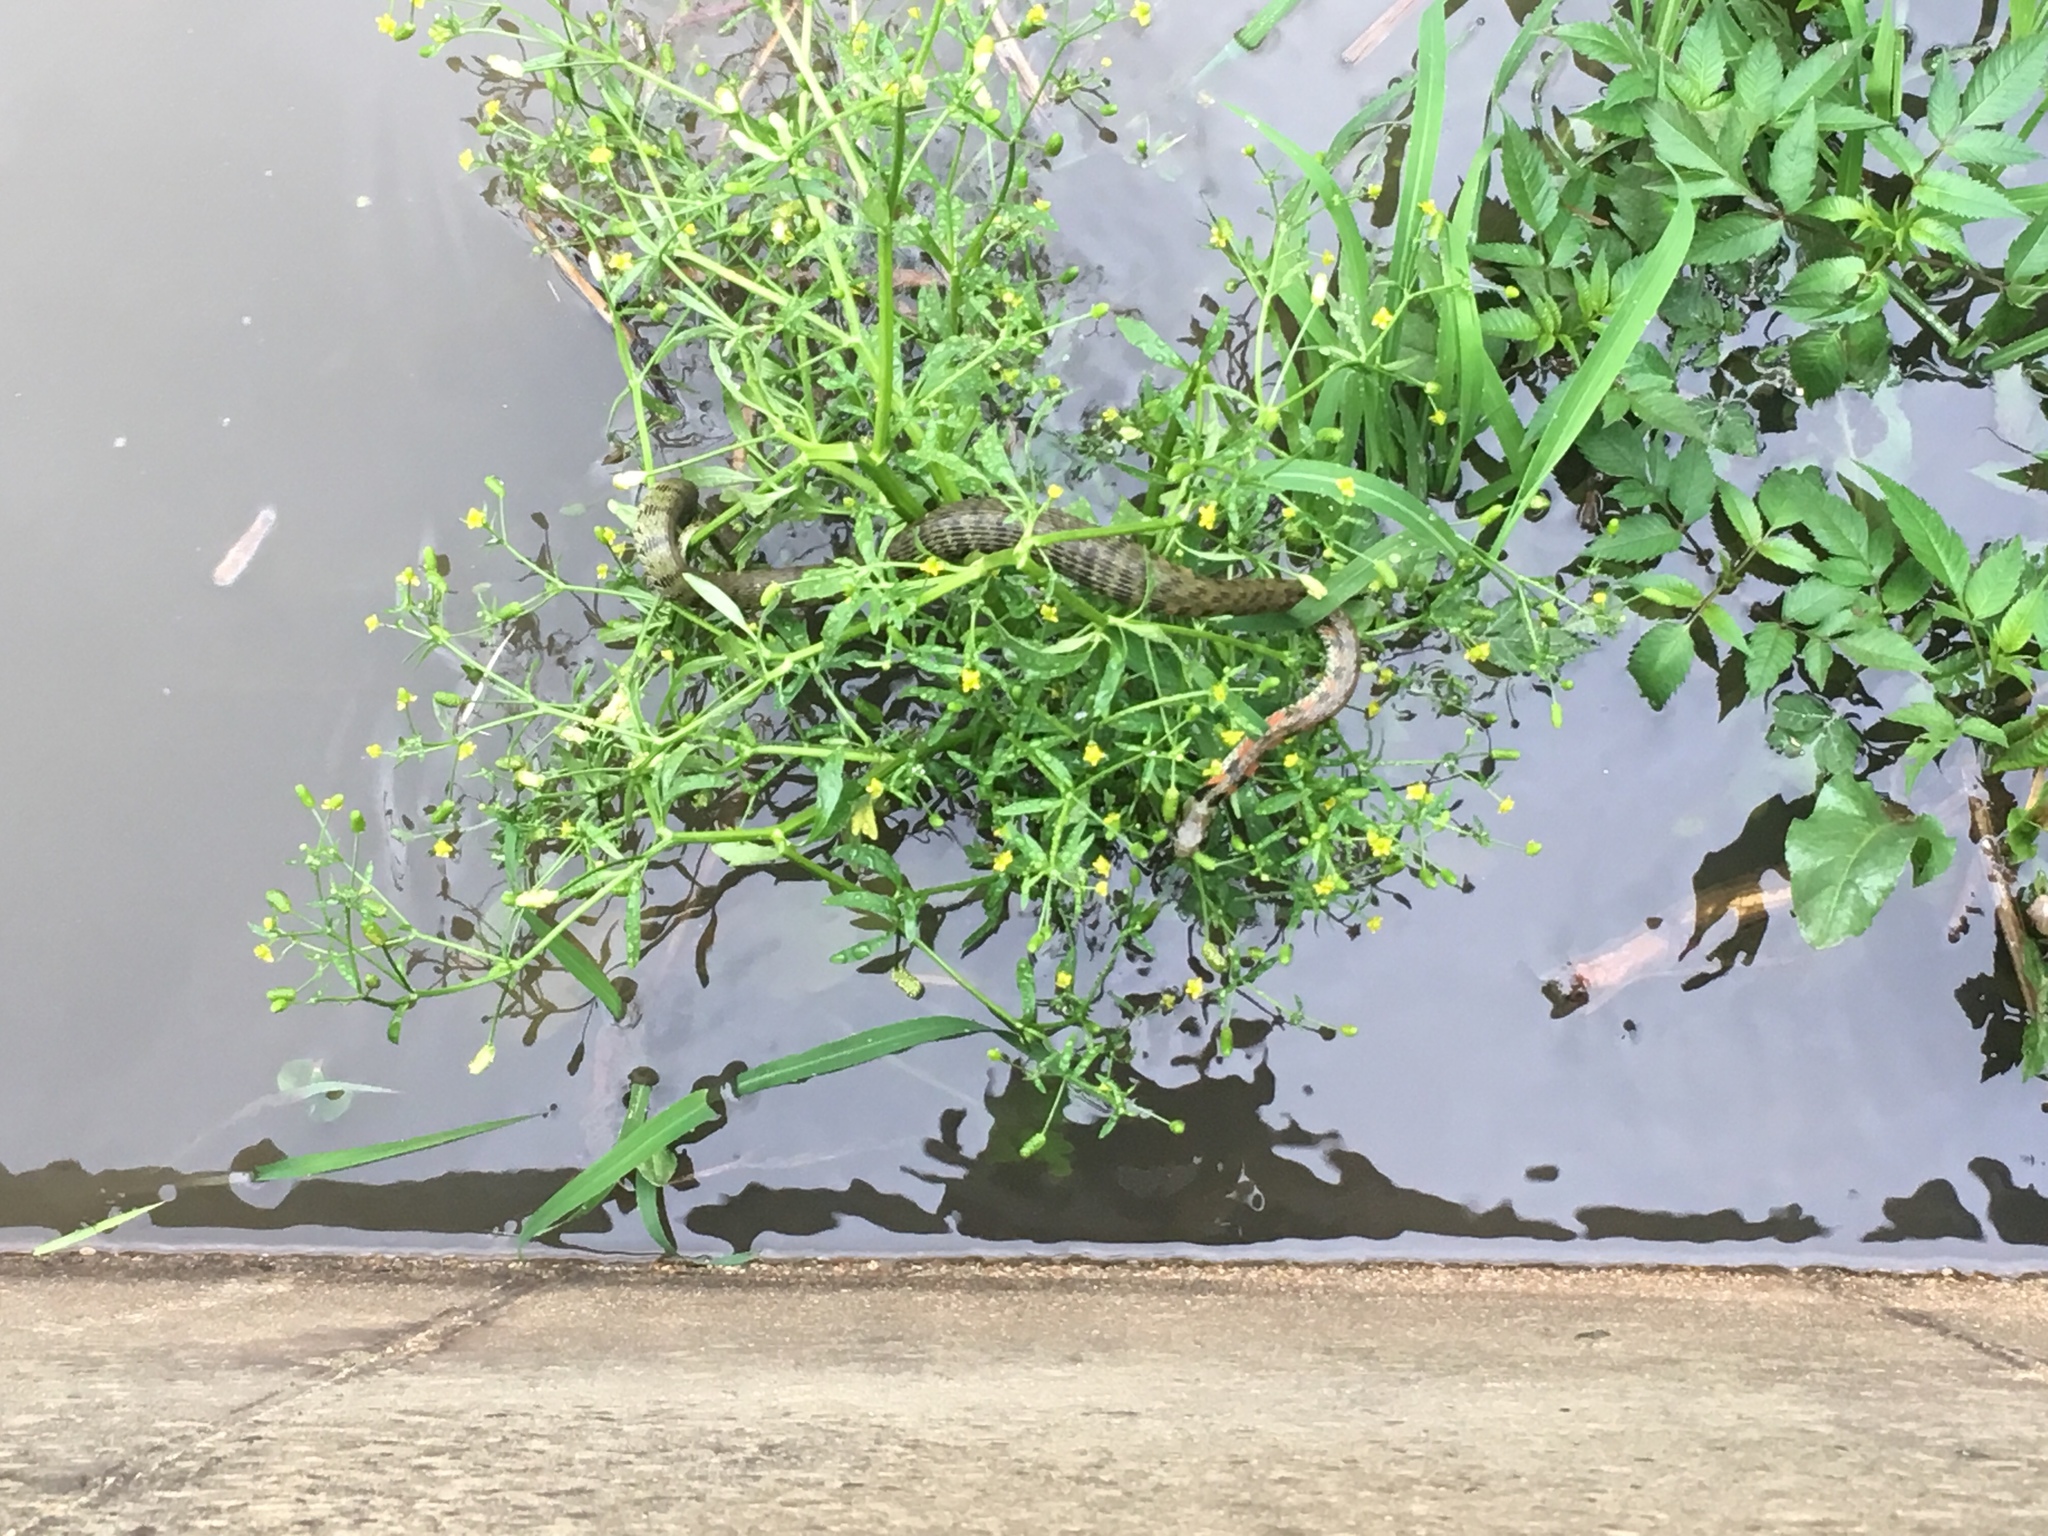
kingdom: Animalia
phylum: Chordata
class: Squamata
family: Colubridae
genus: Rhabdophis
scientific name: Rhabdophis tigrinus
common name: Tiger keelback
